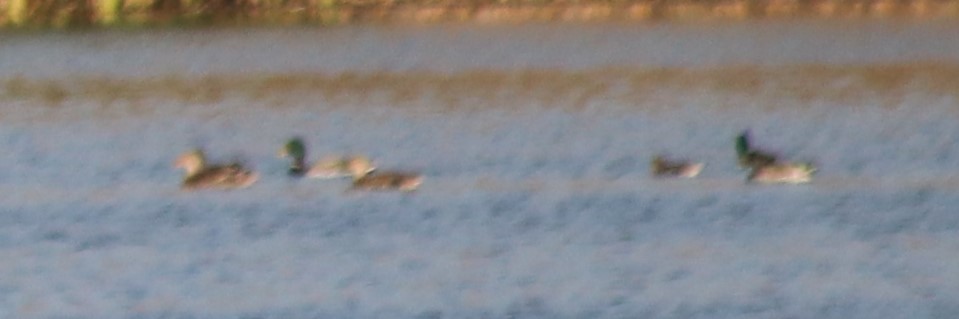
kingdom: Animalia
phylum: Chordata
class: Aves
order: Anseriformes
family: Anatidae
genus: Anas
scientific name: Anas platyrhynchos
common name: Mallard
